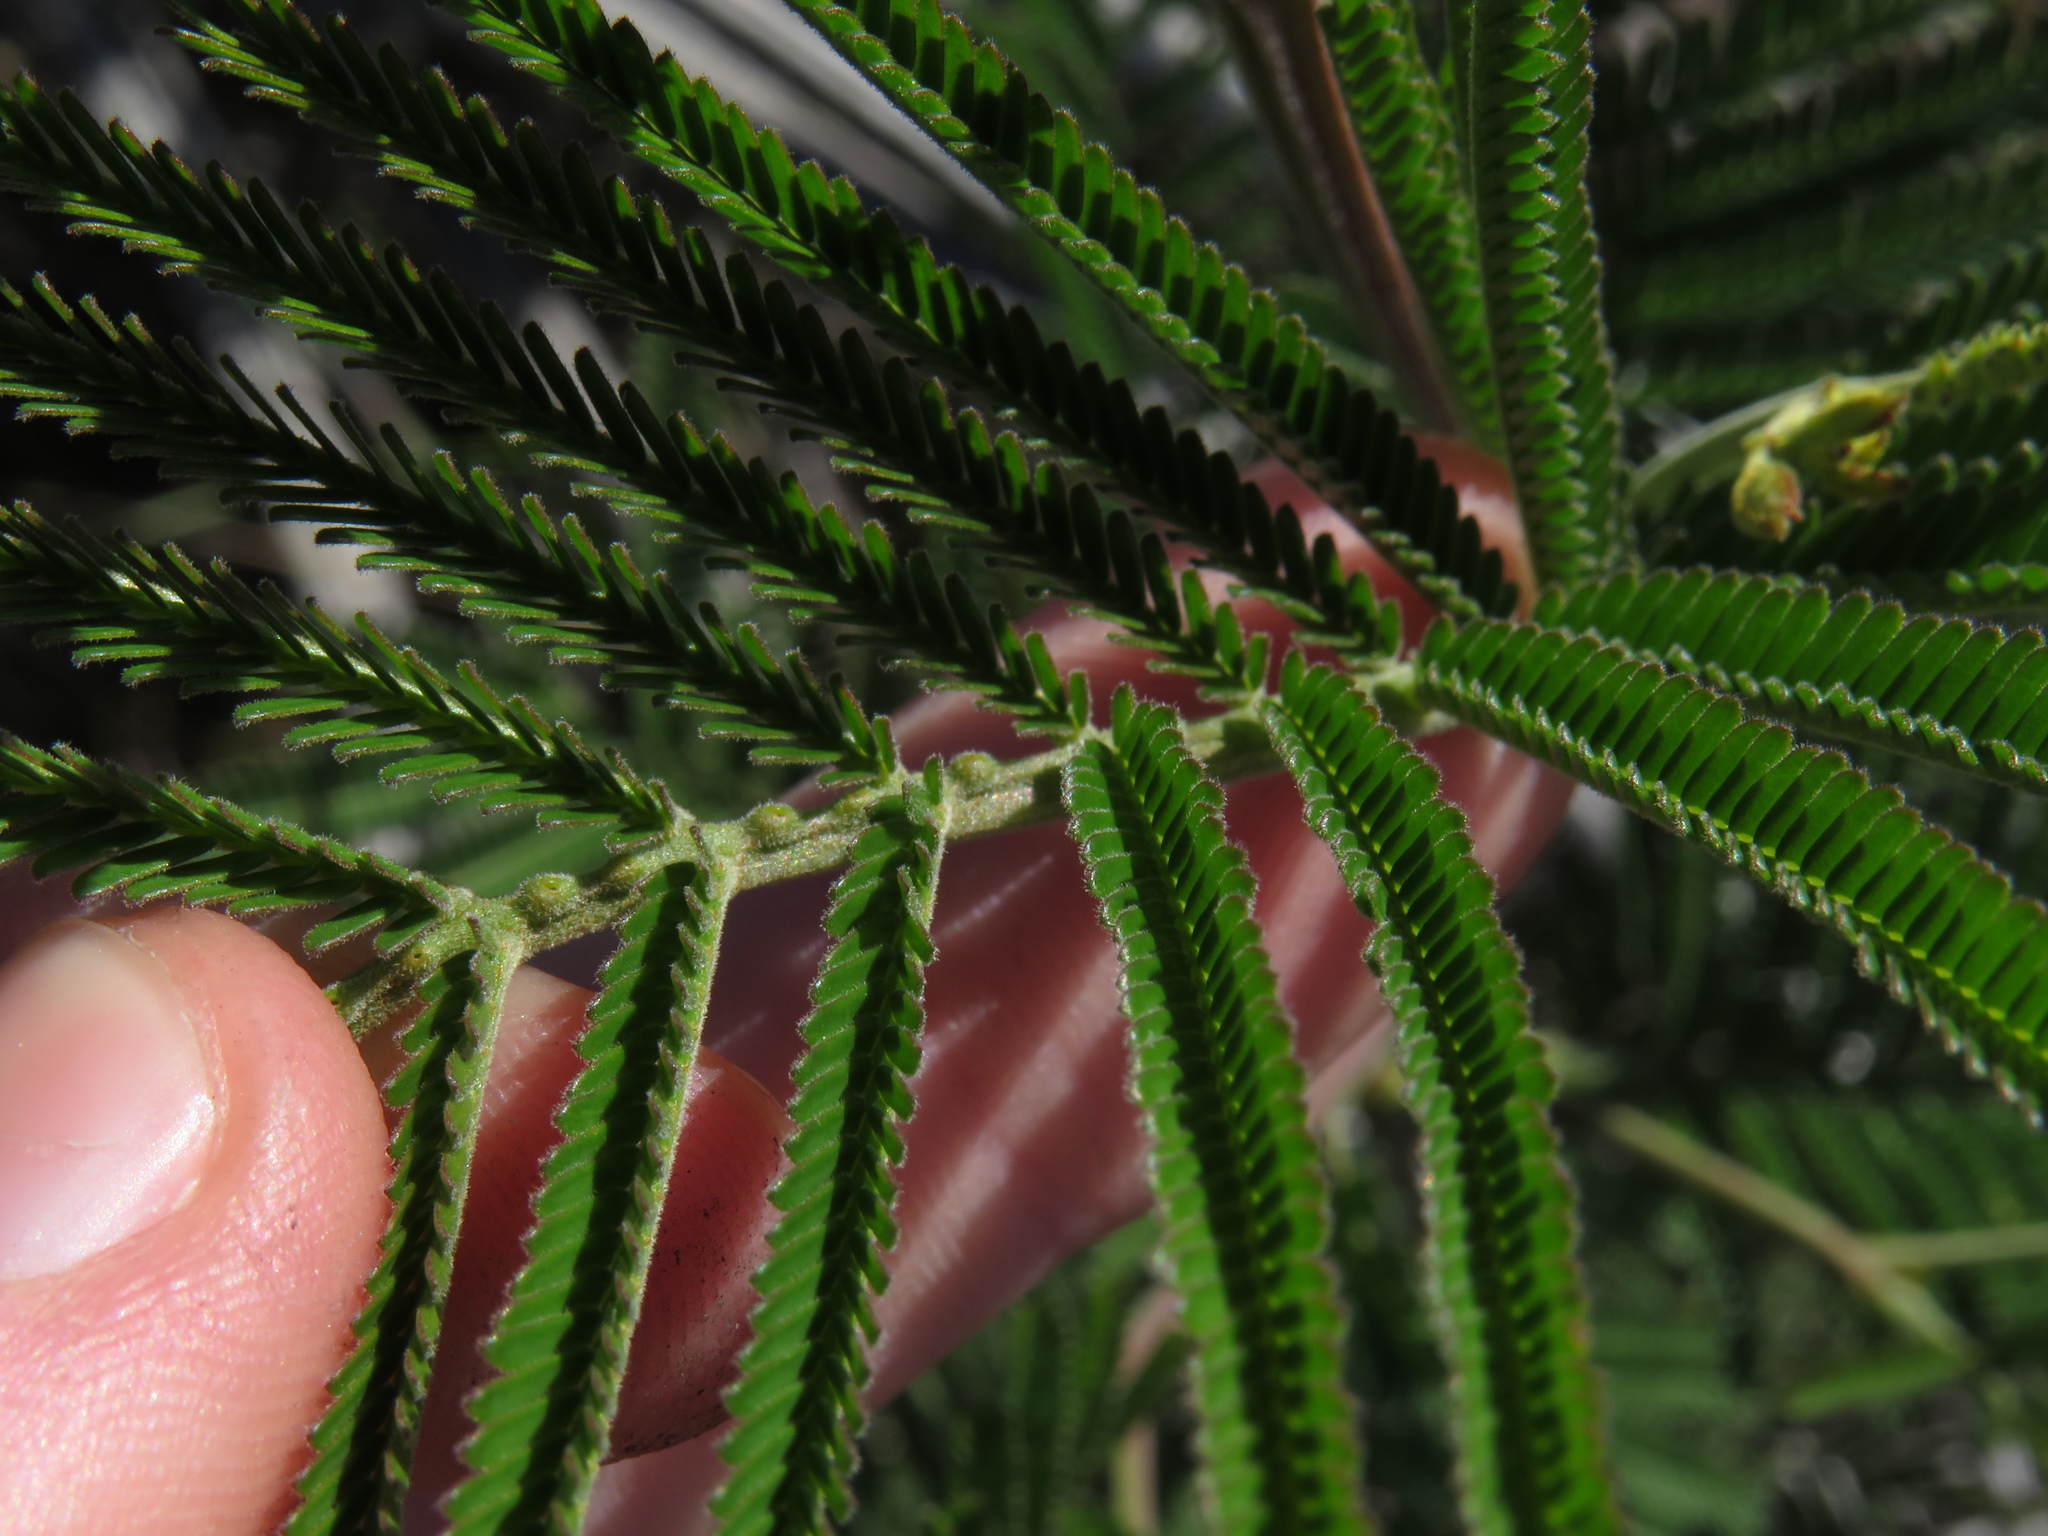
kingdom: Plantae
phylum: Tracheophyta
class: Magnoliopsida
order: Fabales
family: Fabaceae
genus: Acacia
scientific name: Acacia mearnsii
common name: Black wattle
